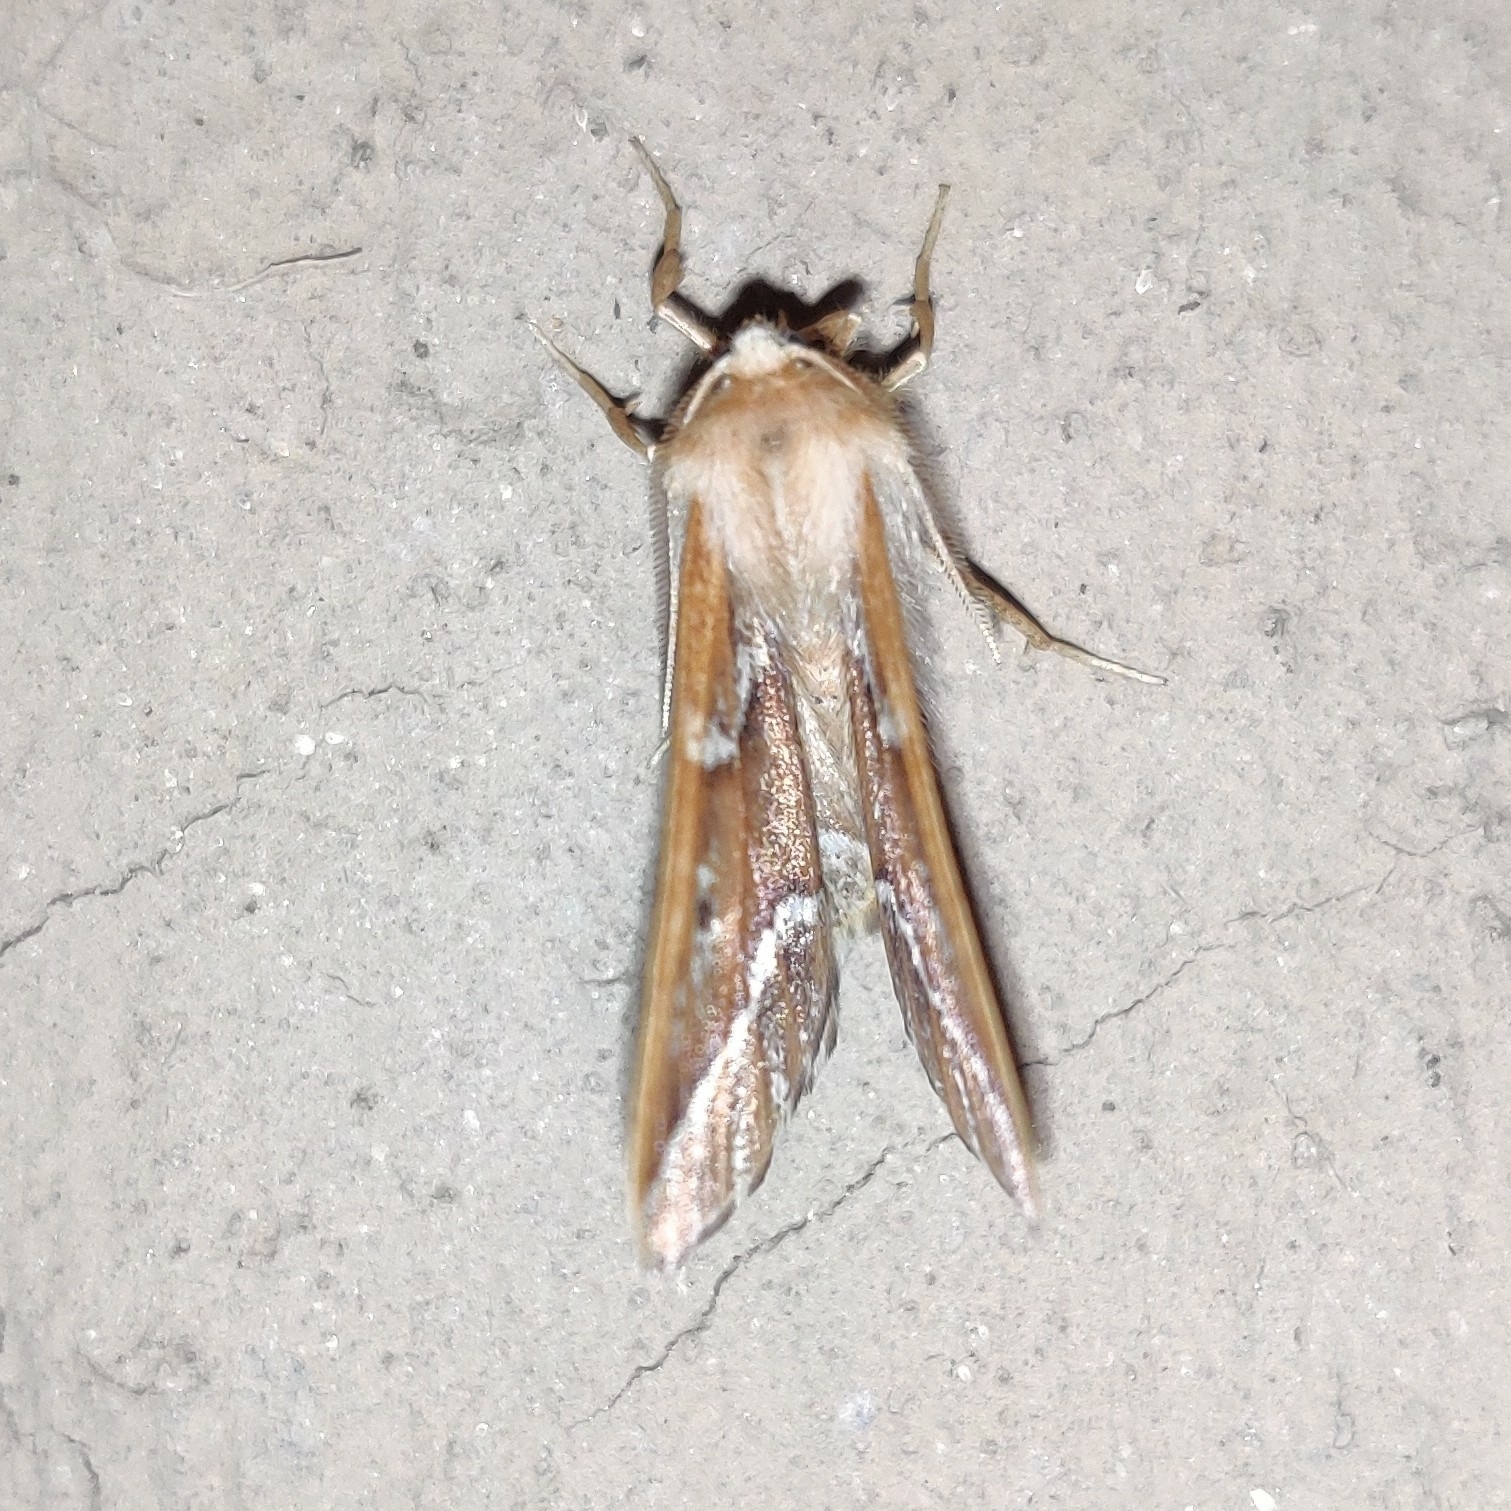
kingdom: Animalia
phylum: Arthropoda
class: Insecta
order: Lepidoptera
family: Geometridae
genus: Odontopera
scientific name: Odontopera kametaria
